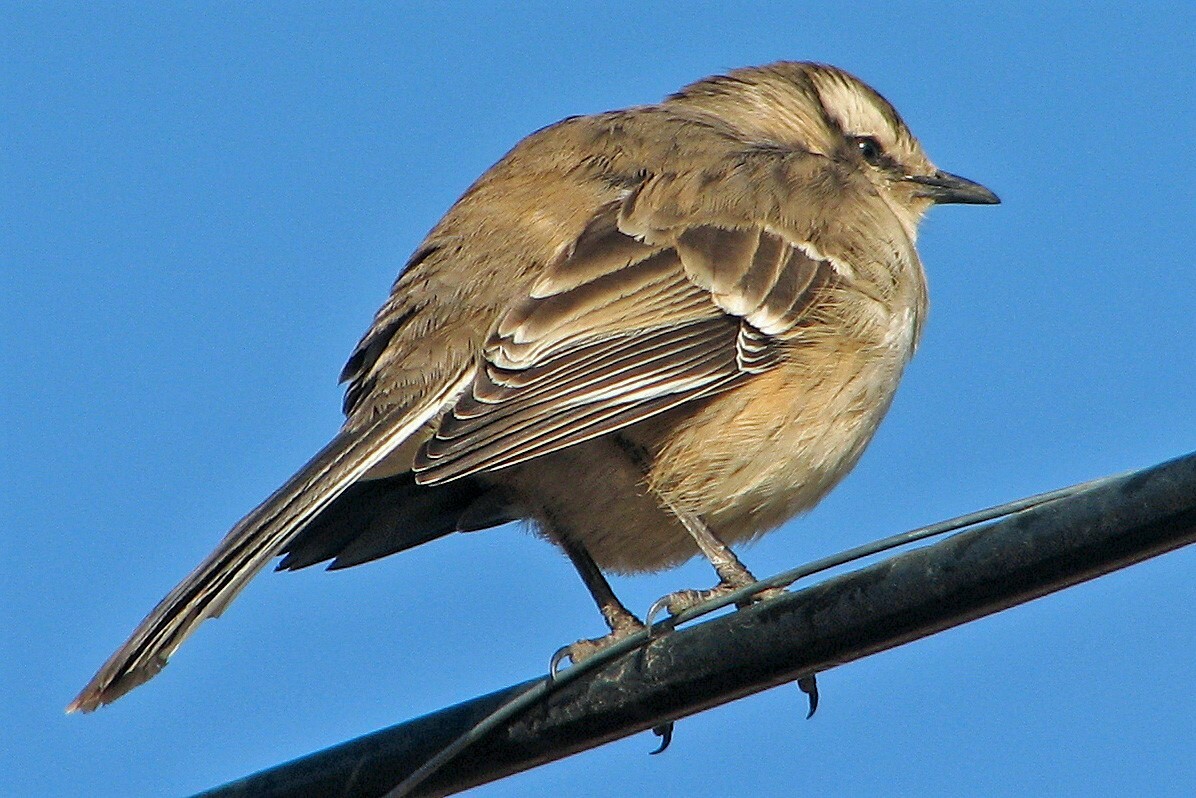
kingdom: Animalia
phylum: Chordata
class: Aves
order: Passeriformes
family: Mimidae
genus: Mimus
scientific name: Mimus saturninus
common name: Chalk-browed mockingbird
